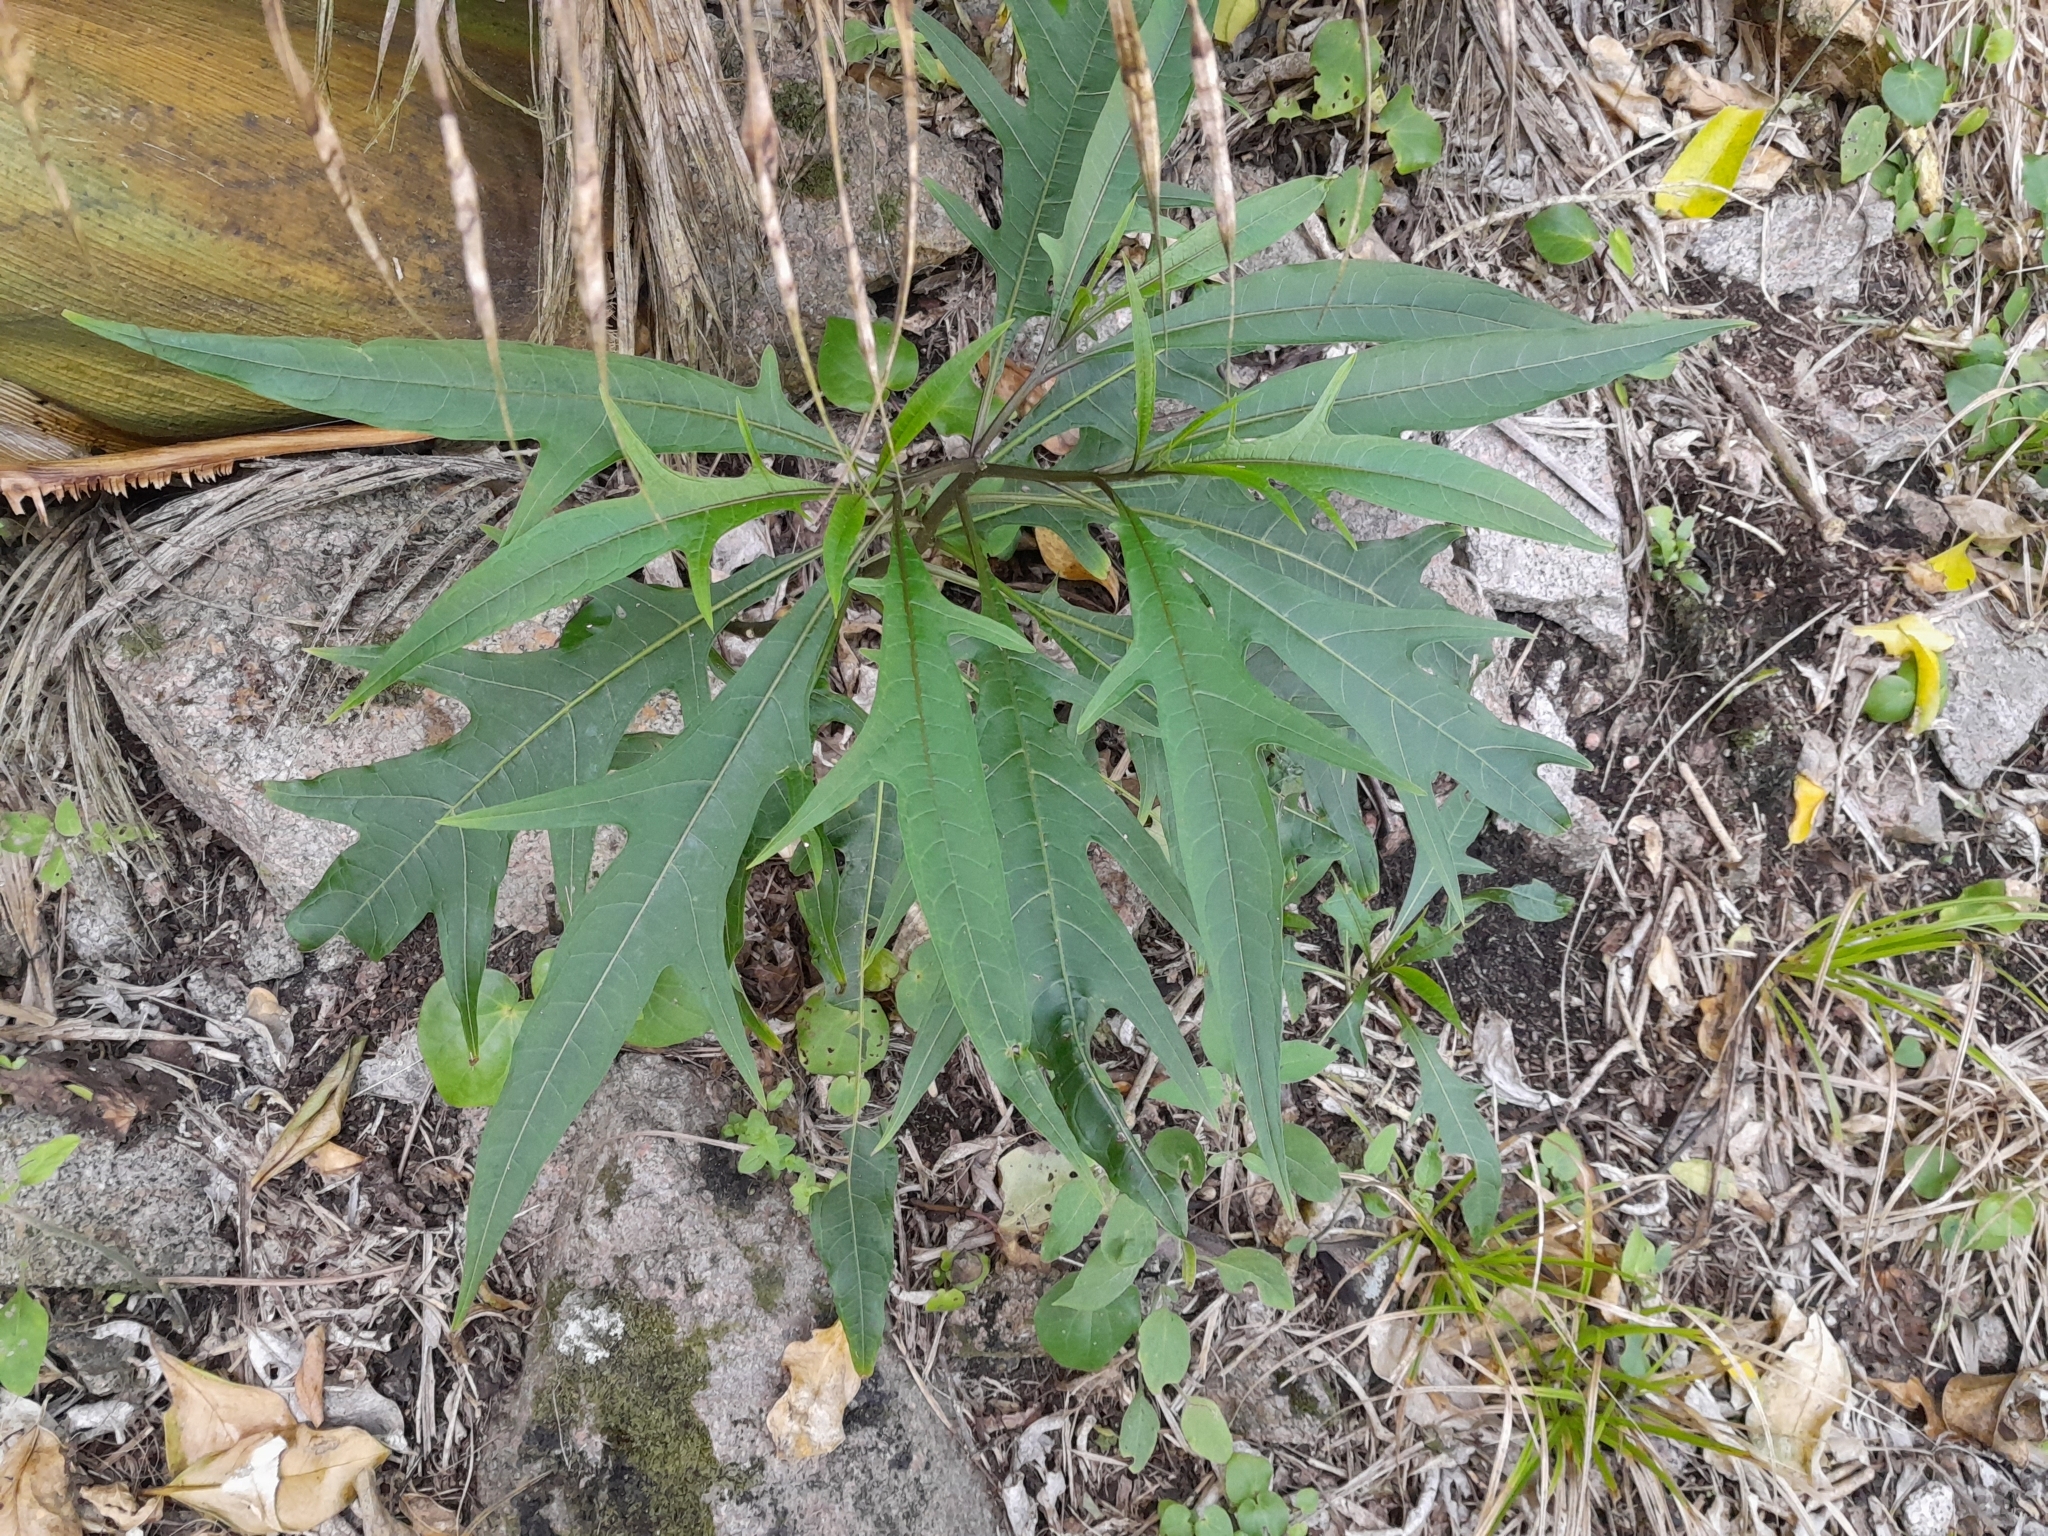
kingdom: Plantae
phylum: Tracheophyta
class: Magnoliopsida
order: Solanales
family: Solanaceae
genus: Solanum
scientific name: Solanum
